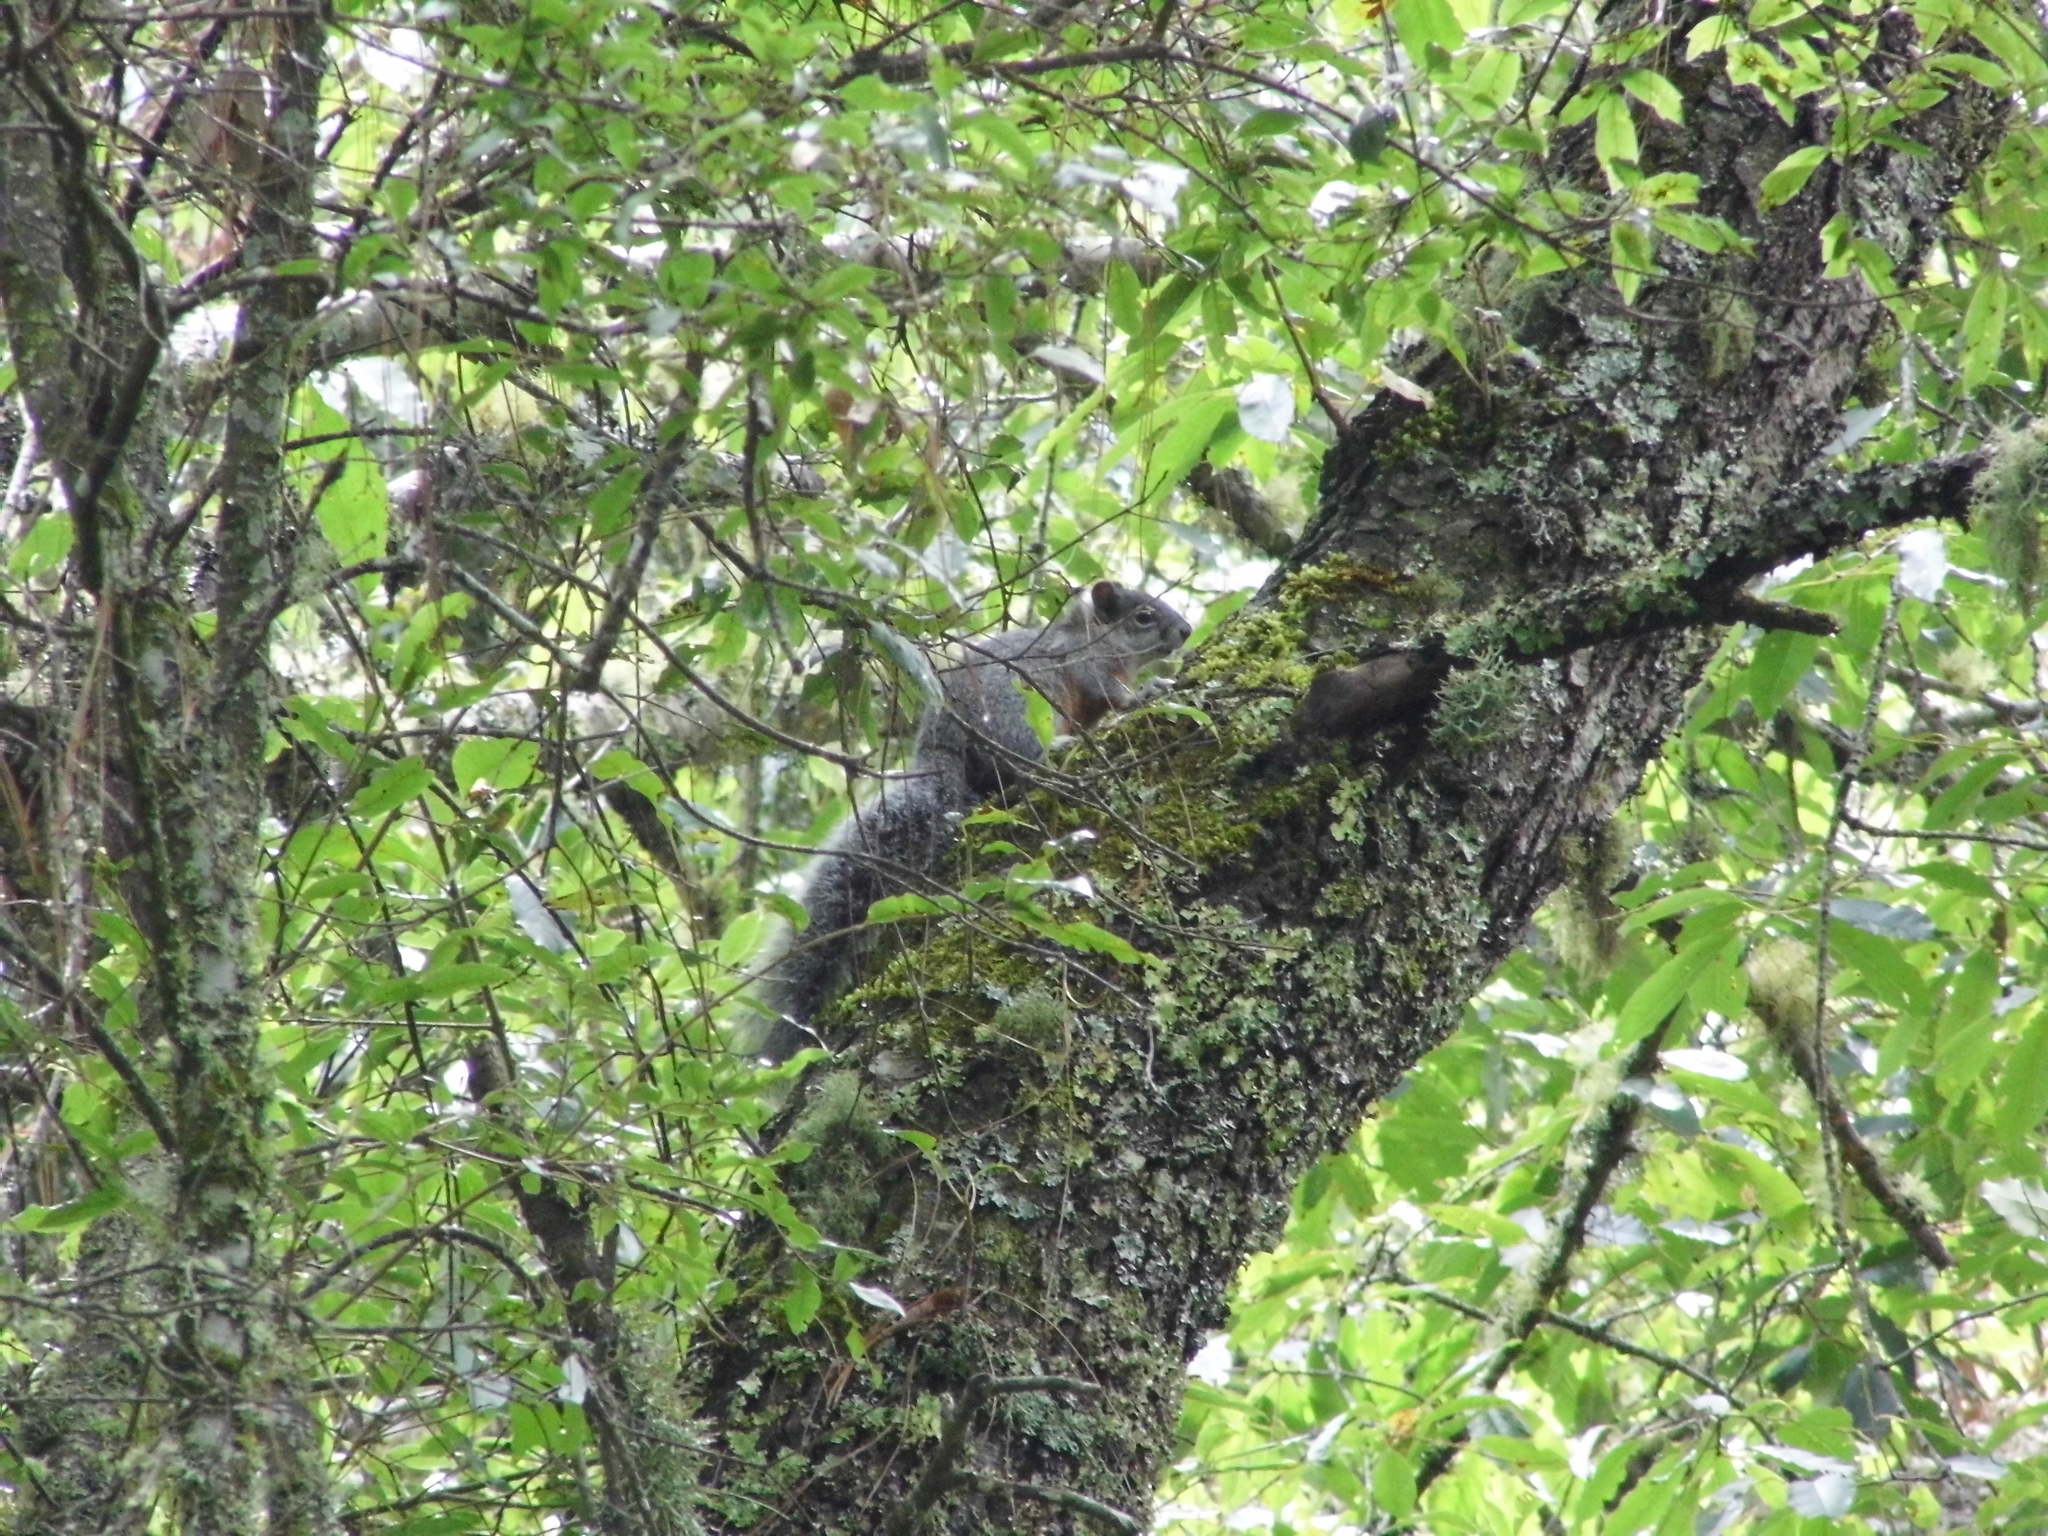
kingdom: Animalia
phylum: Chordata
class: Mammalia
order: Rodentia
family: Sciuridae
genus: Sciurus
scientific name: Sciurus aureogaster
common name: Red-bellied squirrel
